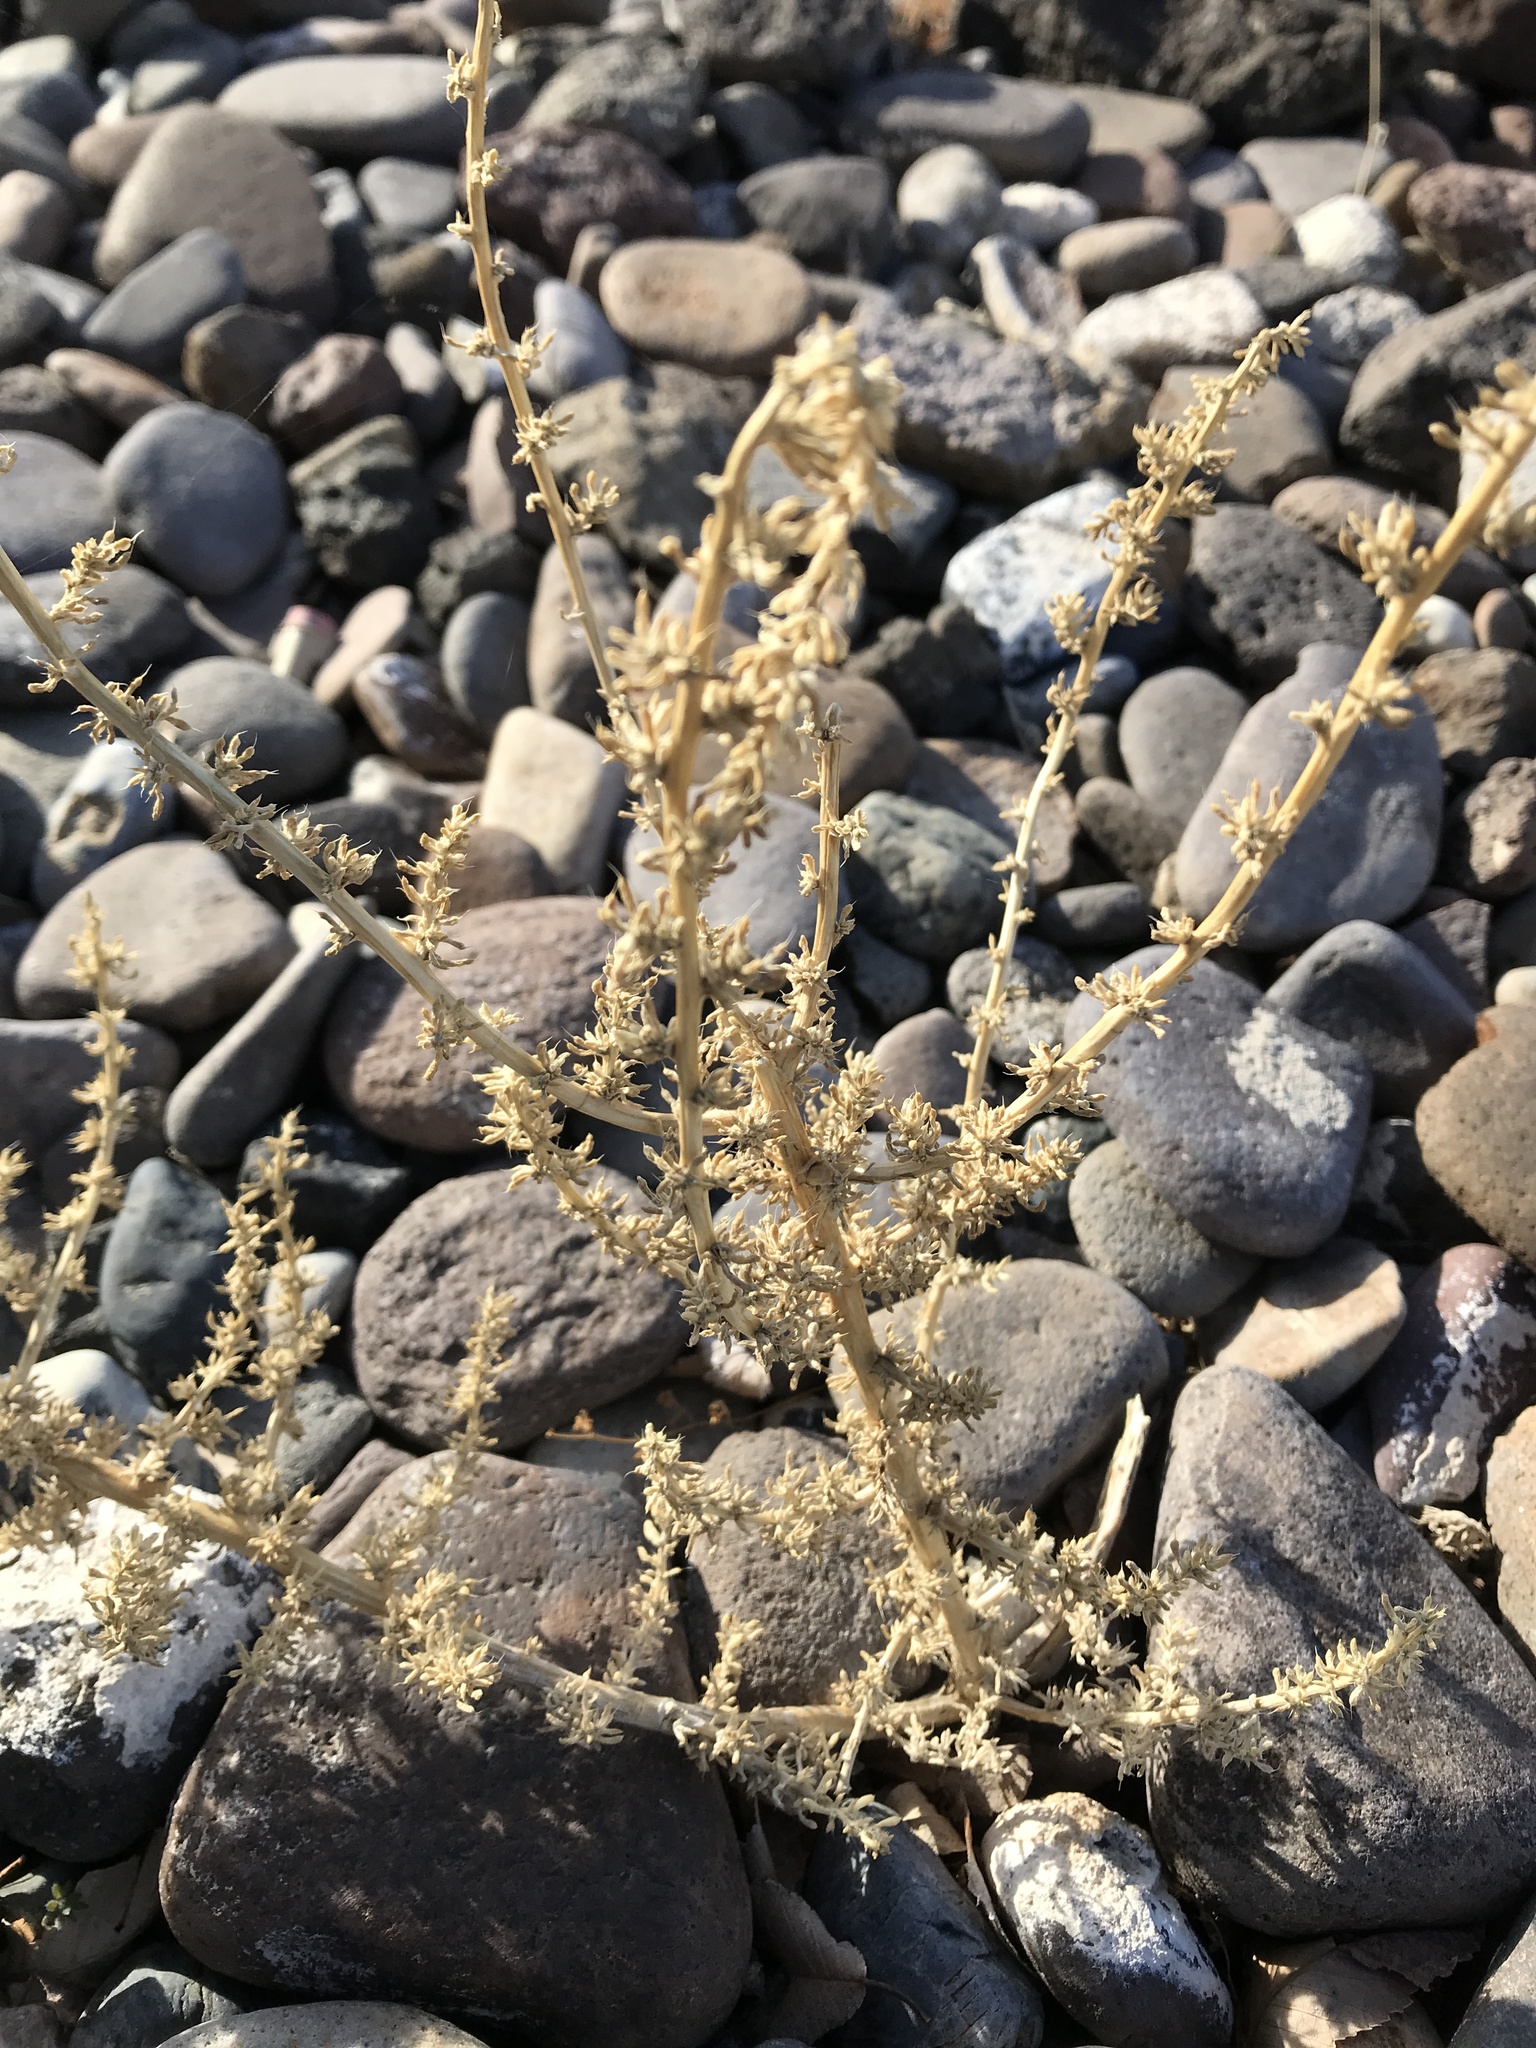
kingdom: Plantae
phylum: Tracheophyta
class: Magnoliopsida
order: Caryophyllales
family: Amaranthaceae
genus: Salsola
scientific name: Salsola tragus
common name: Prickly russian thistle
